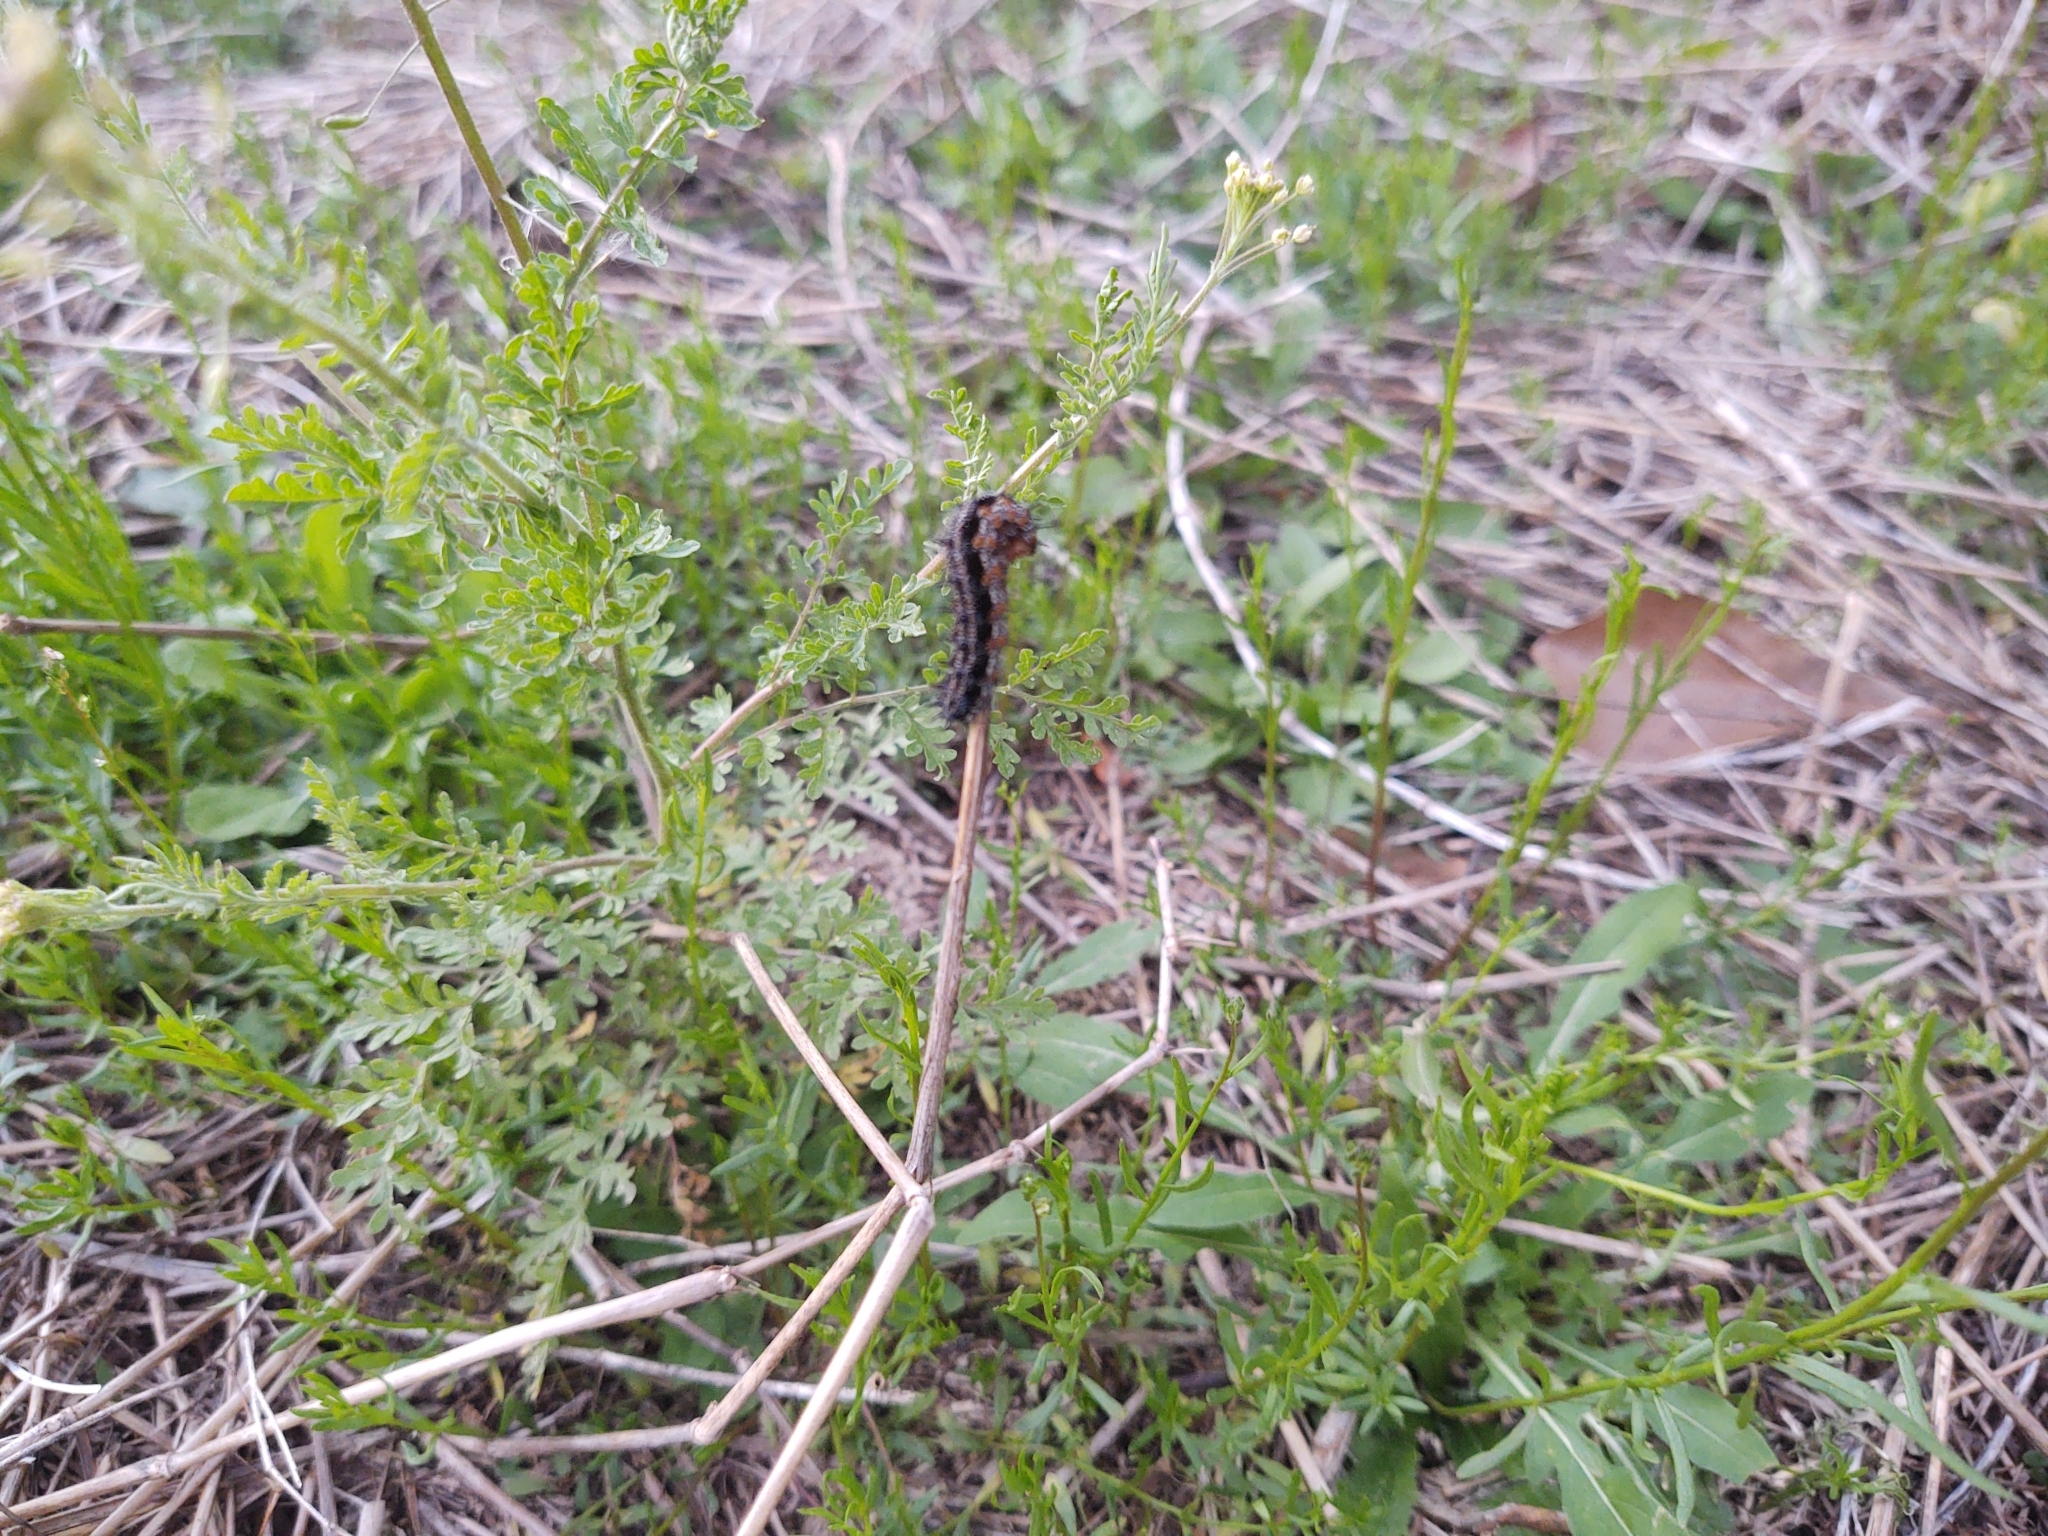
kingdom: Animalia
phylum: Arthropoda
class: Insecta
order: Lepidoptera
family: Nymphalidae
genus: Junonia
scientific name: Junonia coenia
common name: Common buckeye
